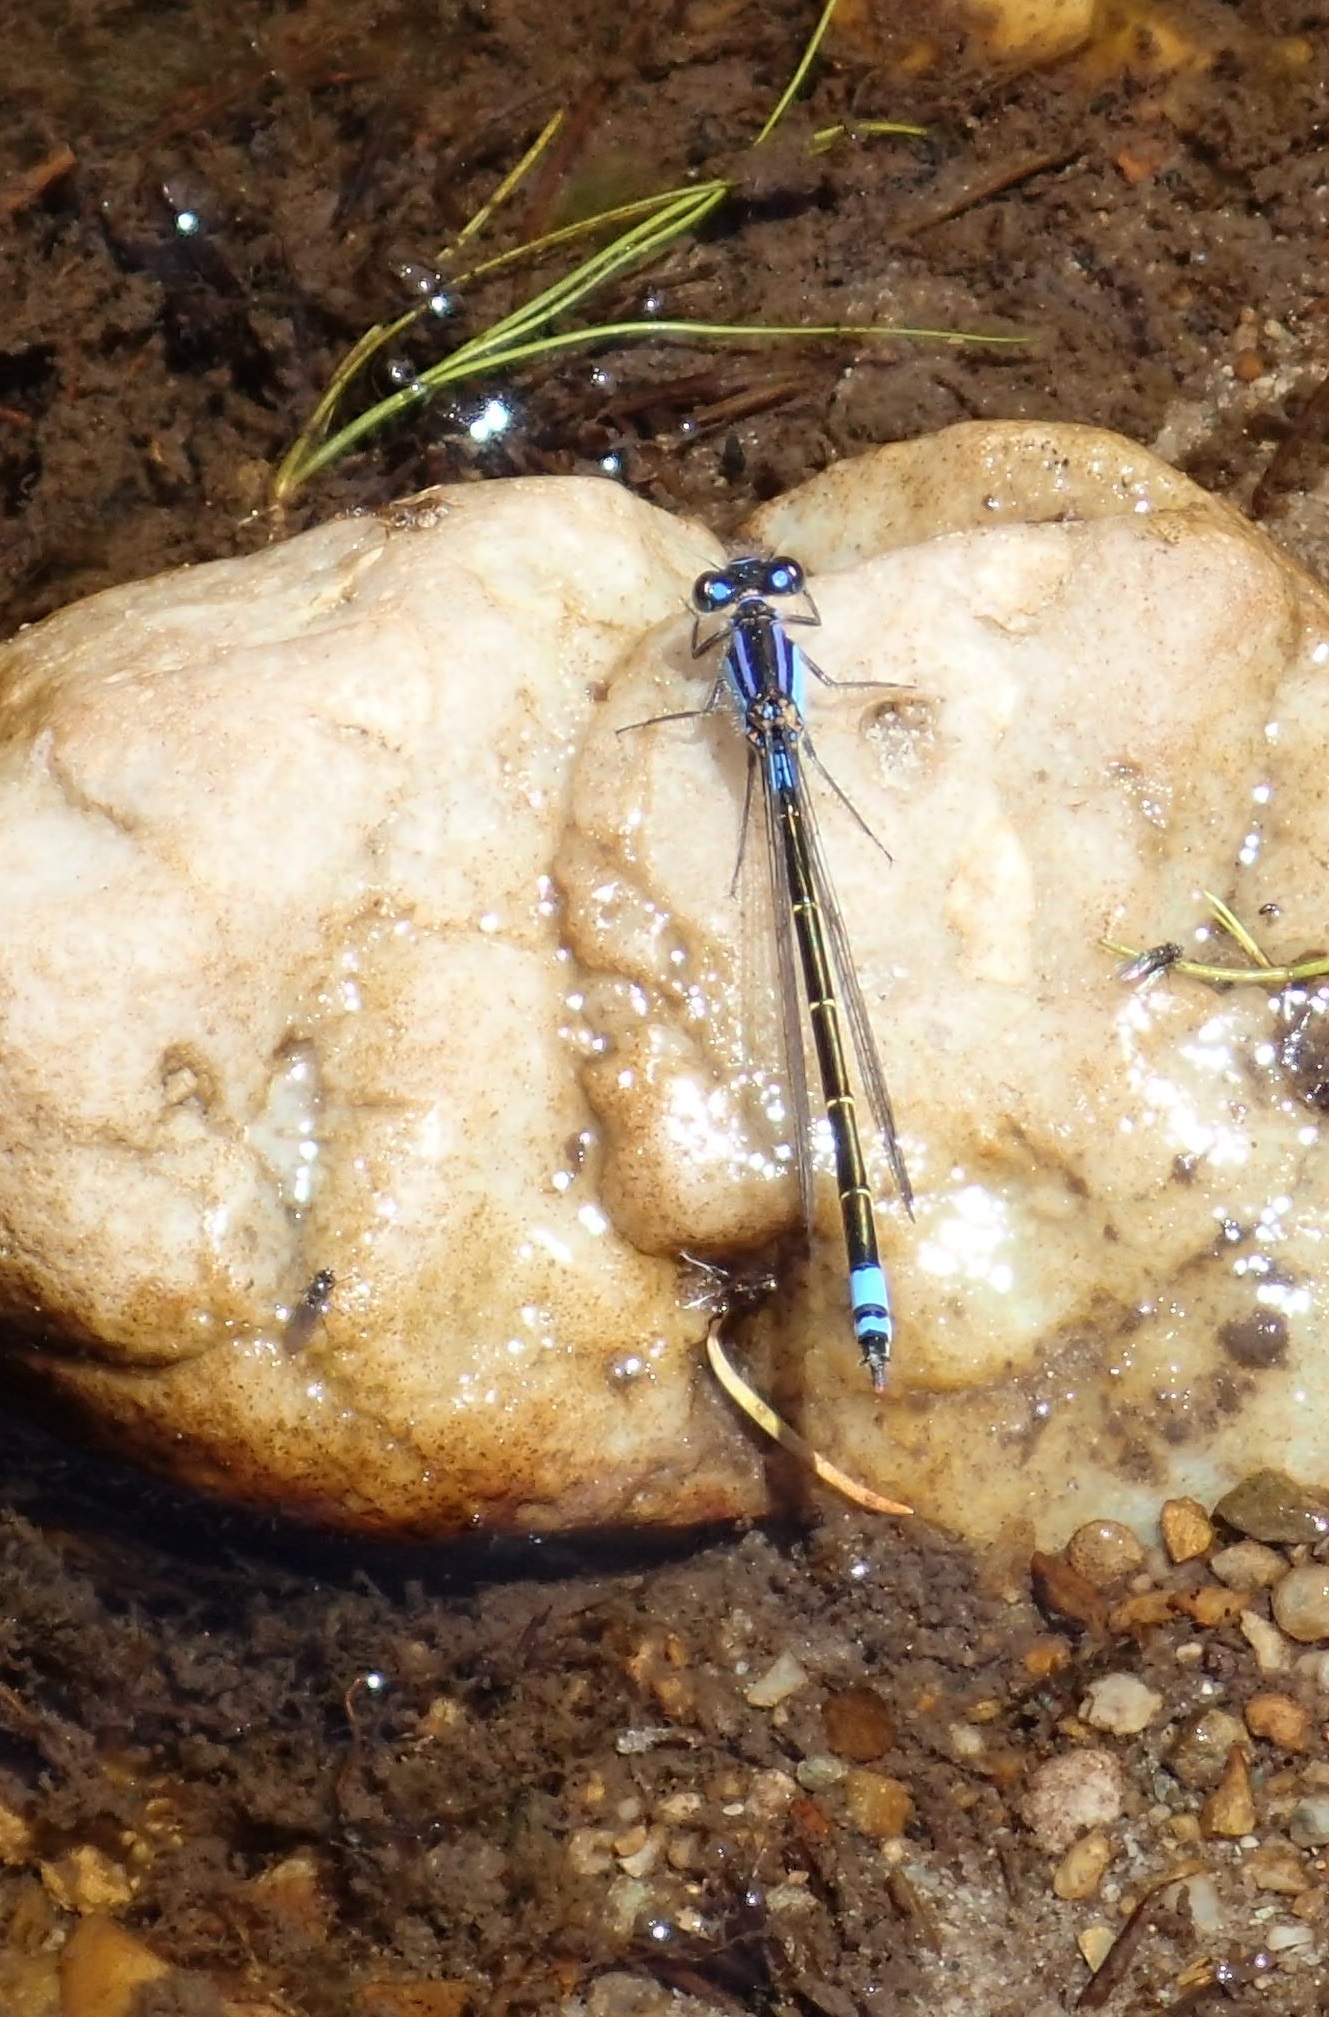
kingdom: Animalia
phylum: Arthropoda
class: Insecta
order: Odonata
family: Coenagrionidae
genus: Ischnura
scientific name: Ischnura heterosticta
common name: Common bluetail
